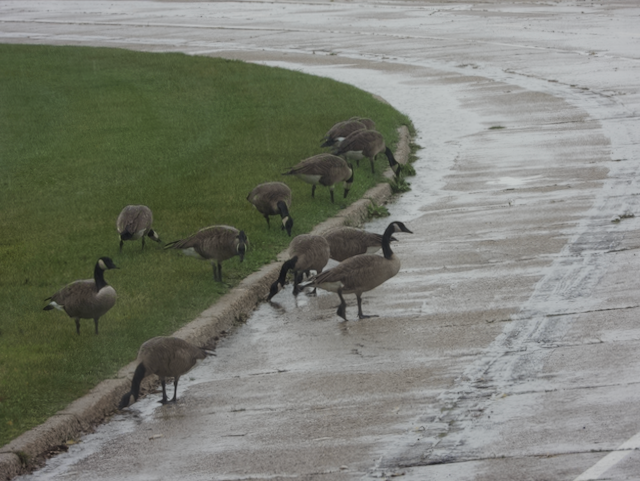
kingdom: Animalia
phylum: Chordata
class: Aves
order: Anseriformes
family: Anatidae
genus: Branta
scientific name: Branta canadensis
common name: Canada goose
